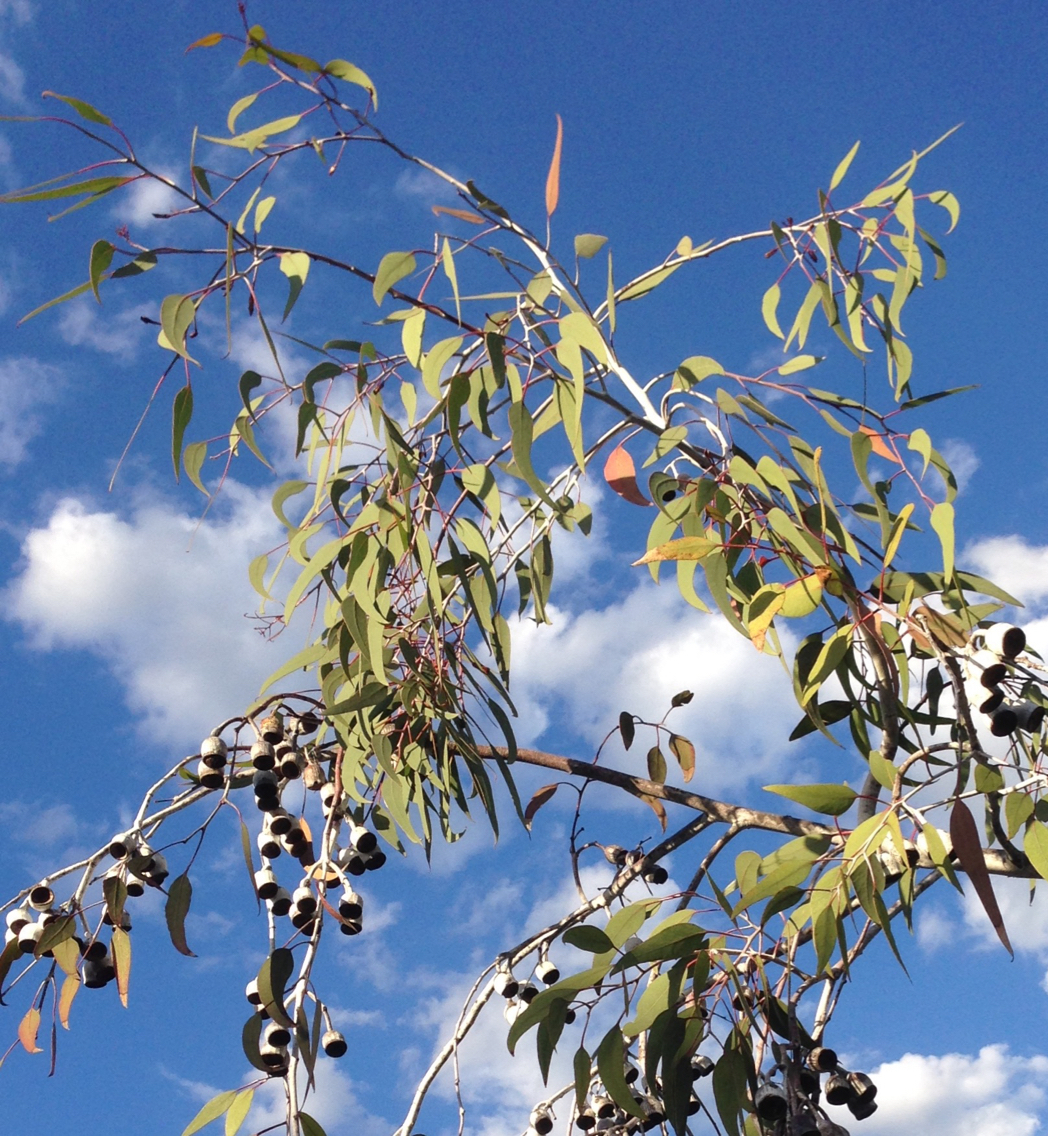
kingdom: Plantae
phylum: Tracheophyta
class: Magnoliopsida
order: Myrtales
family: Myrtaceae
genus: Eucalyptus
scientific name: Eucalyptus caesia
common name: Silver princess
